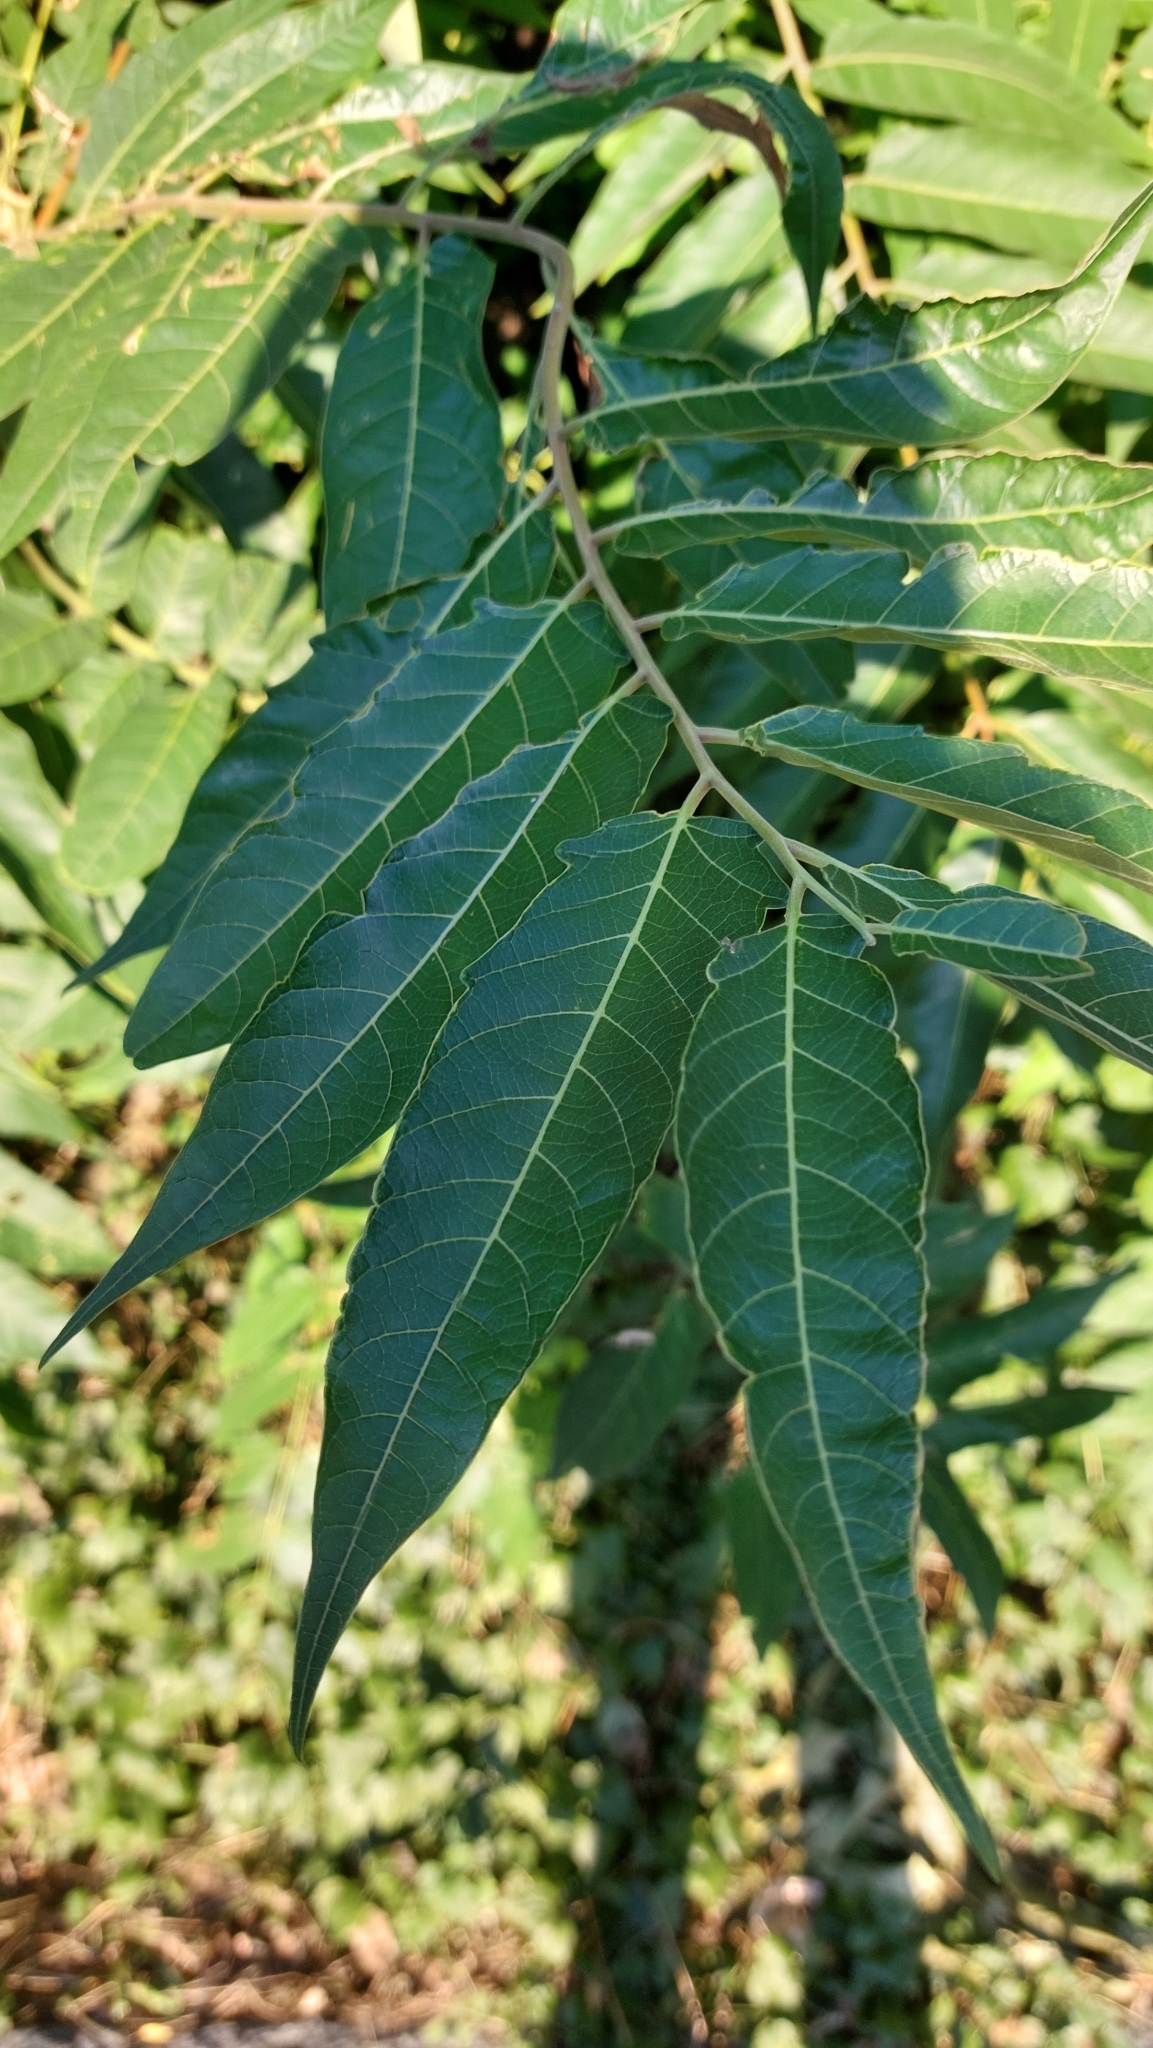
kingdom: Plantae
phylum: Tracheophyta
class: Magnoliopsida
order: Sapindales
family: Simaroubaceae
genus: Ailanthus
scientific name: Ailanthus altissima
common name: Tree-of-heaven
